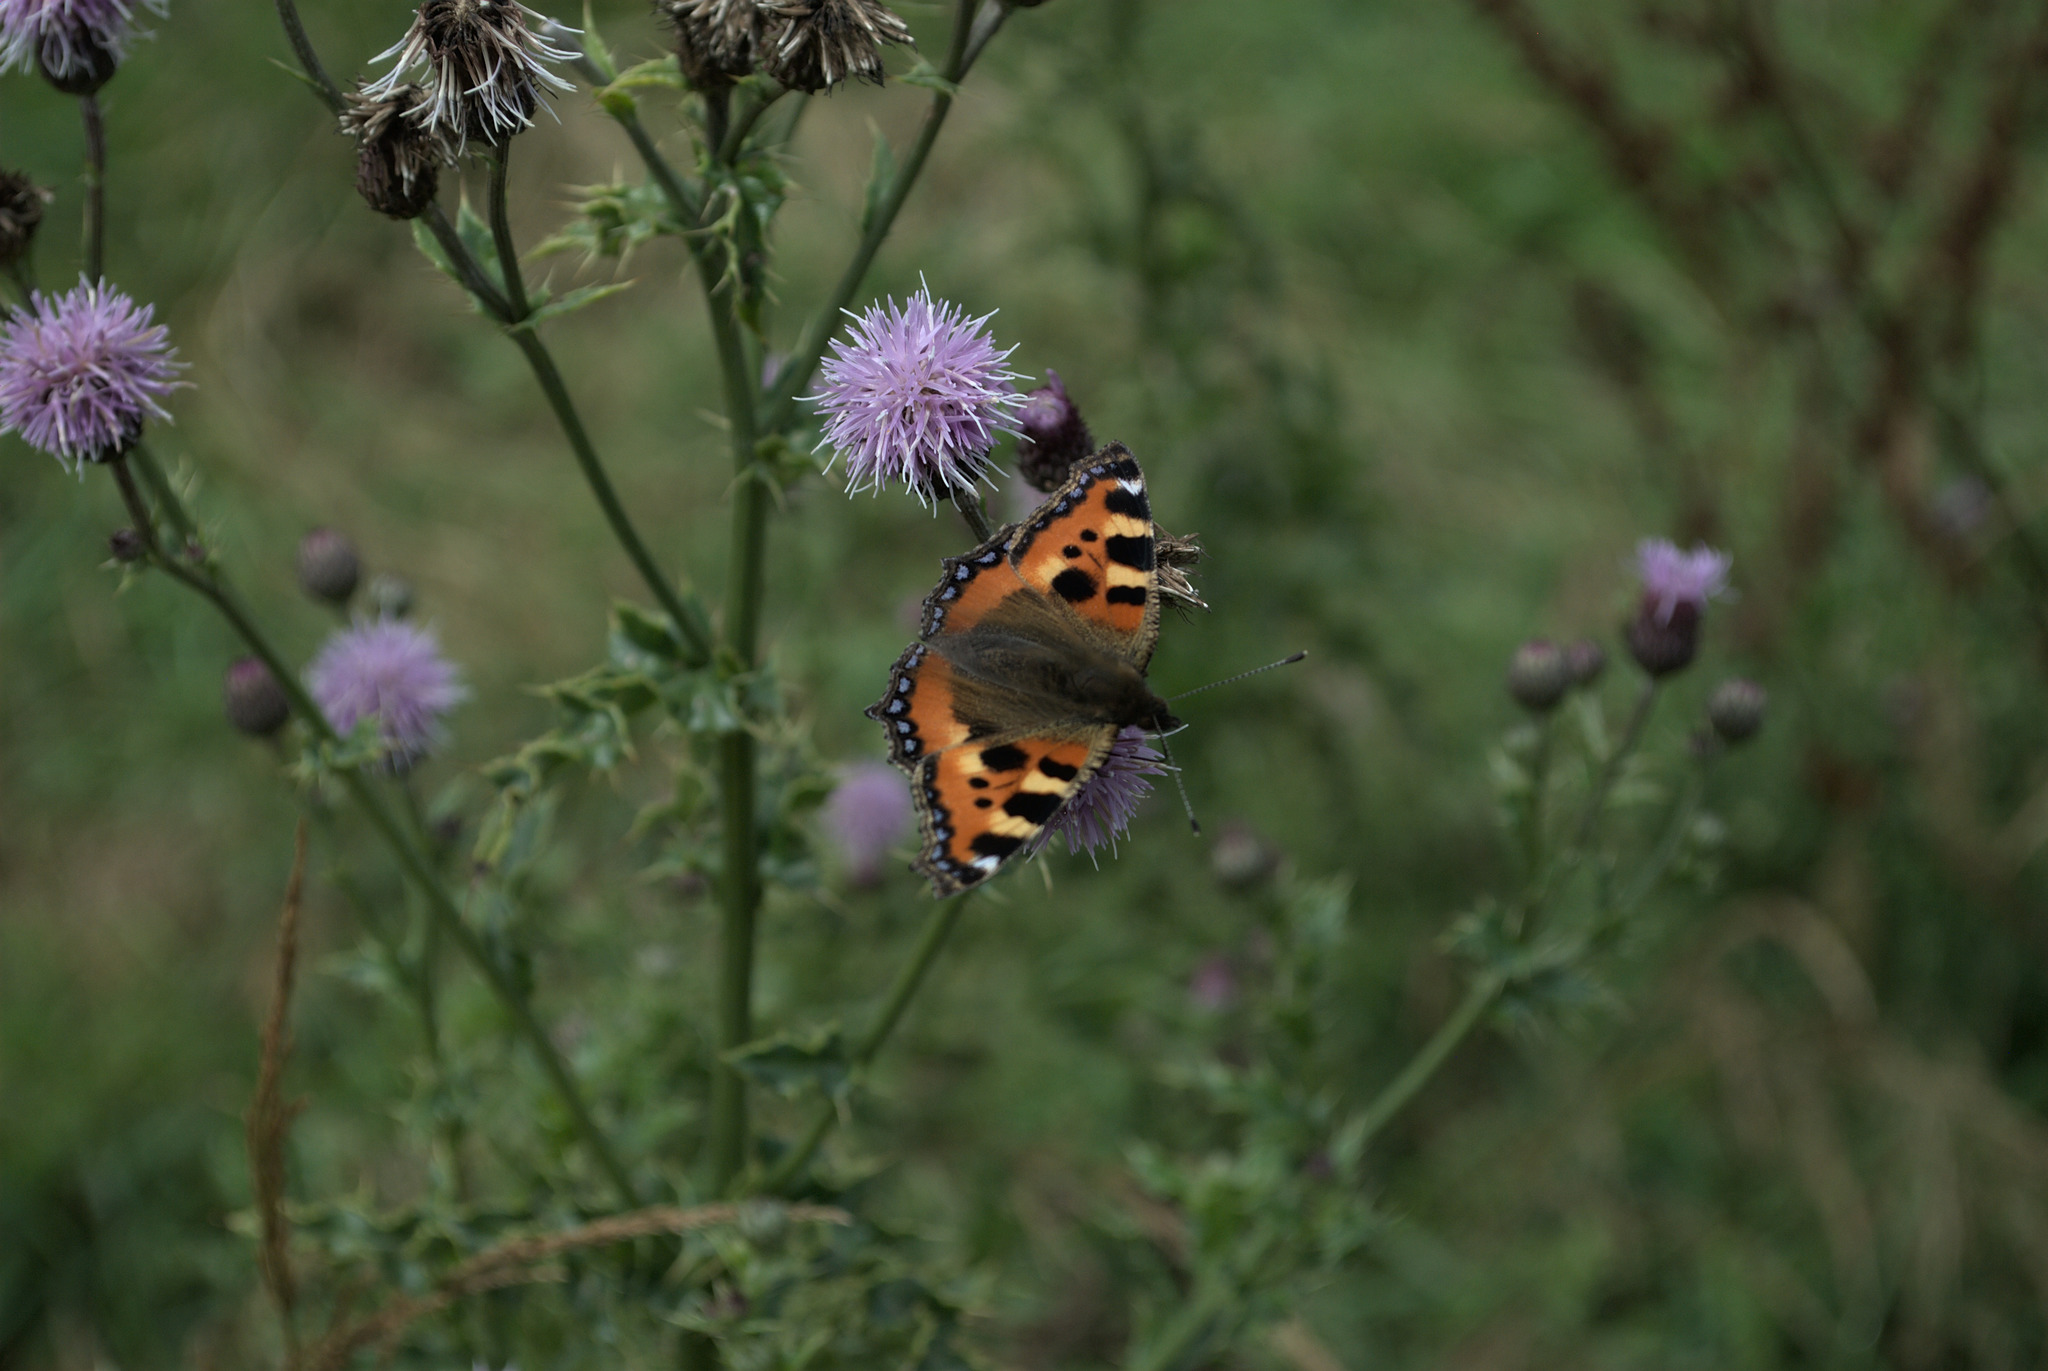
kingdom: Animalia
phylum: Arthropoda
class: Insecta
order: Lepidoptera
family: Nymphalidae
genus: Aglais
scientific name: Aglais urticae
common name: Small tortoiseshell
